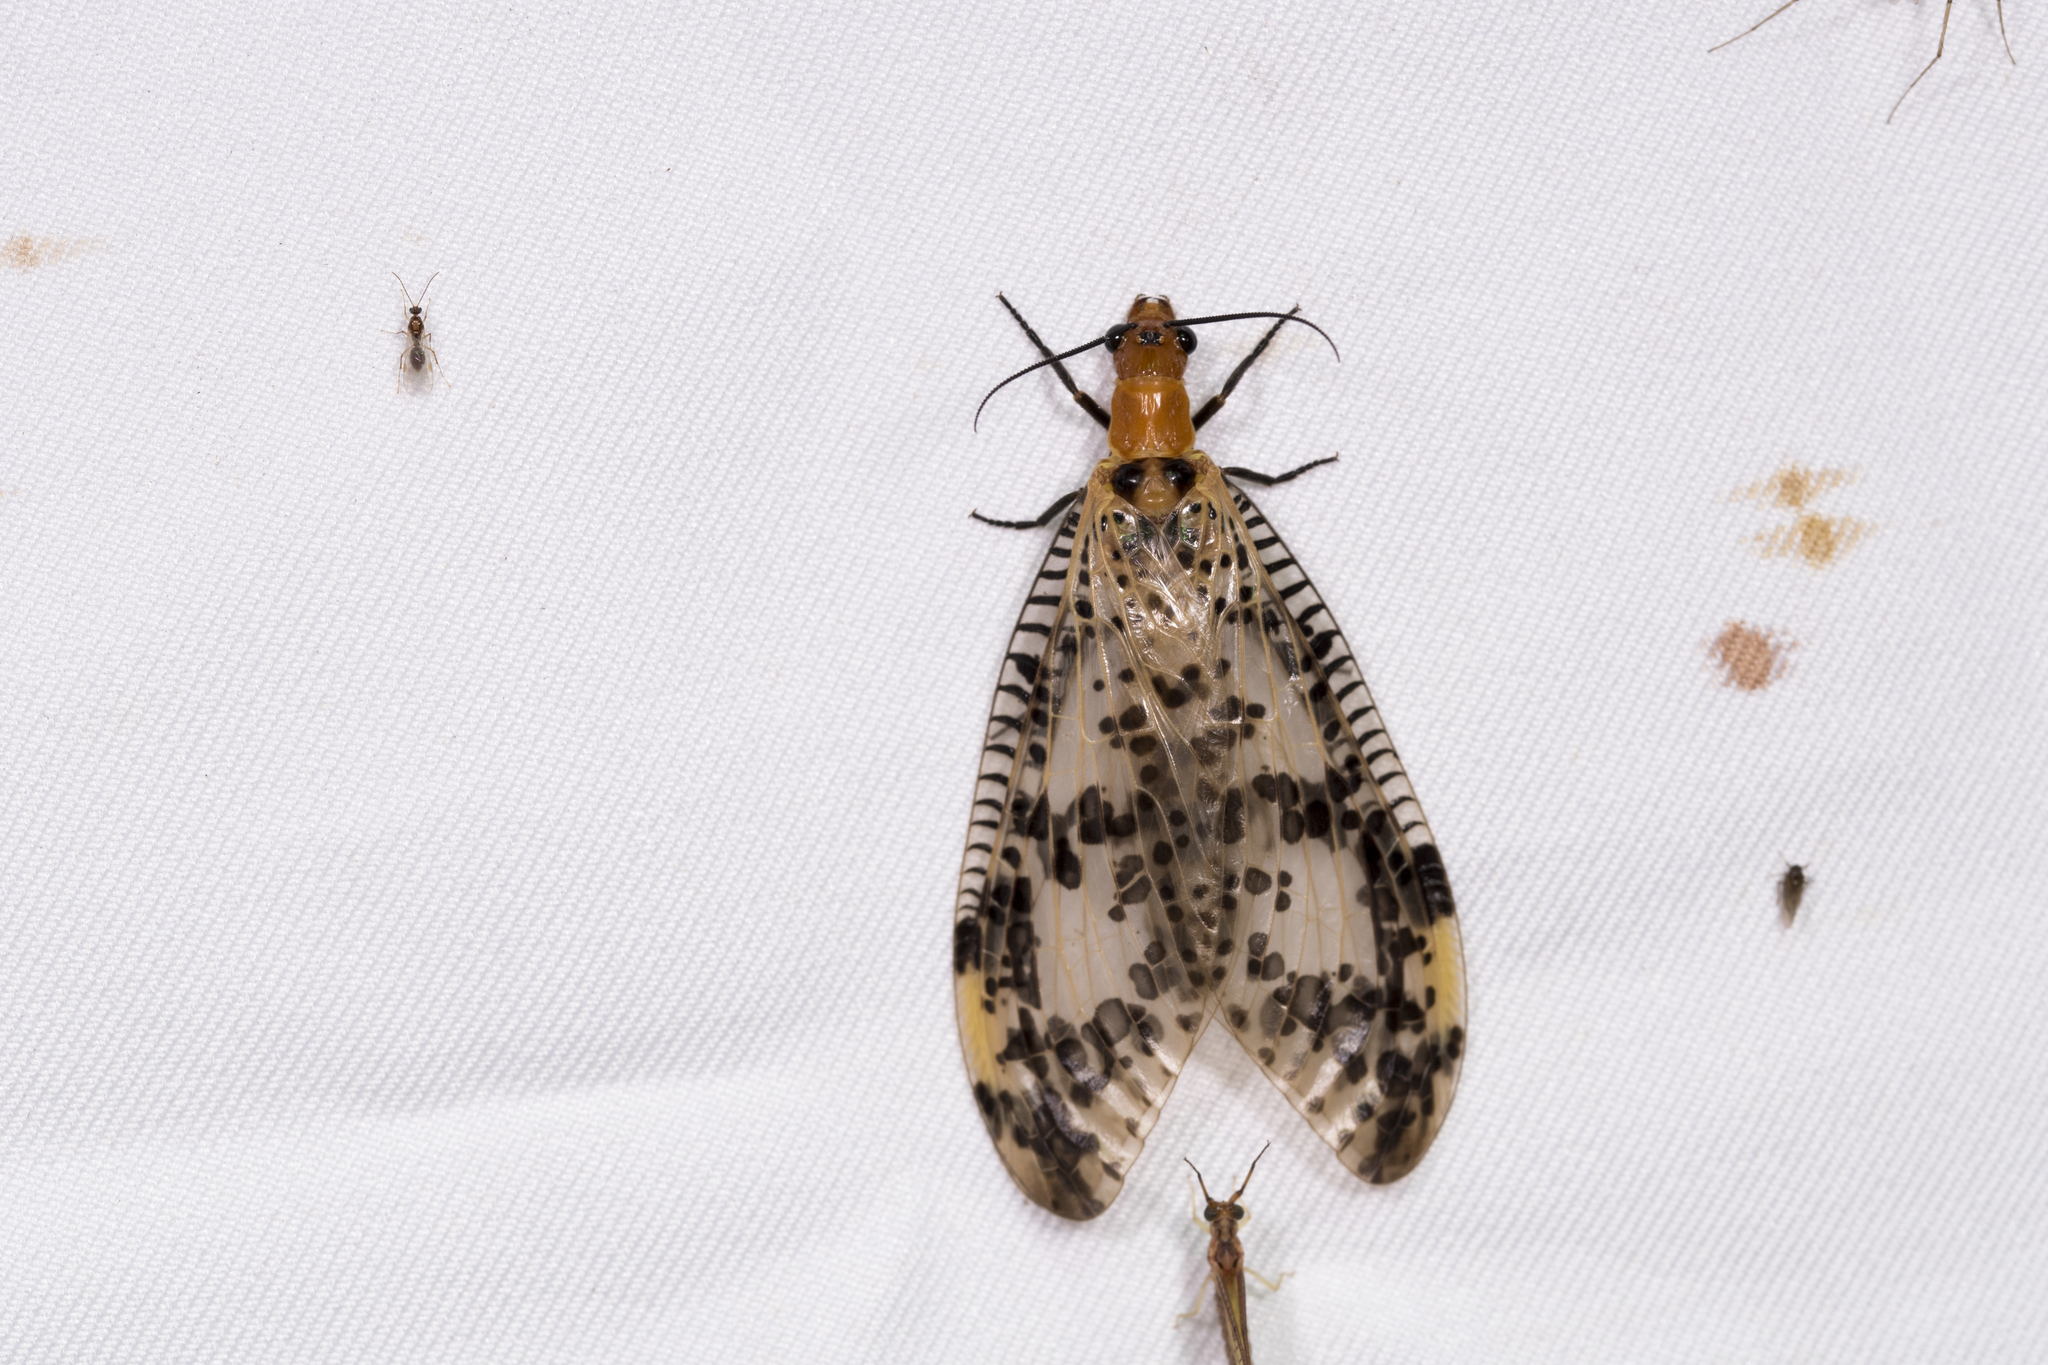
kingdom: Animalia
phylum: Arthropoda
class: Insecta
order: Megaloptera
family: Corydalidae
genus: Neochauliodes
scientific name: Neochauliodes formosanus
